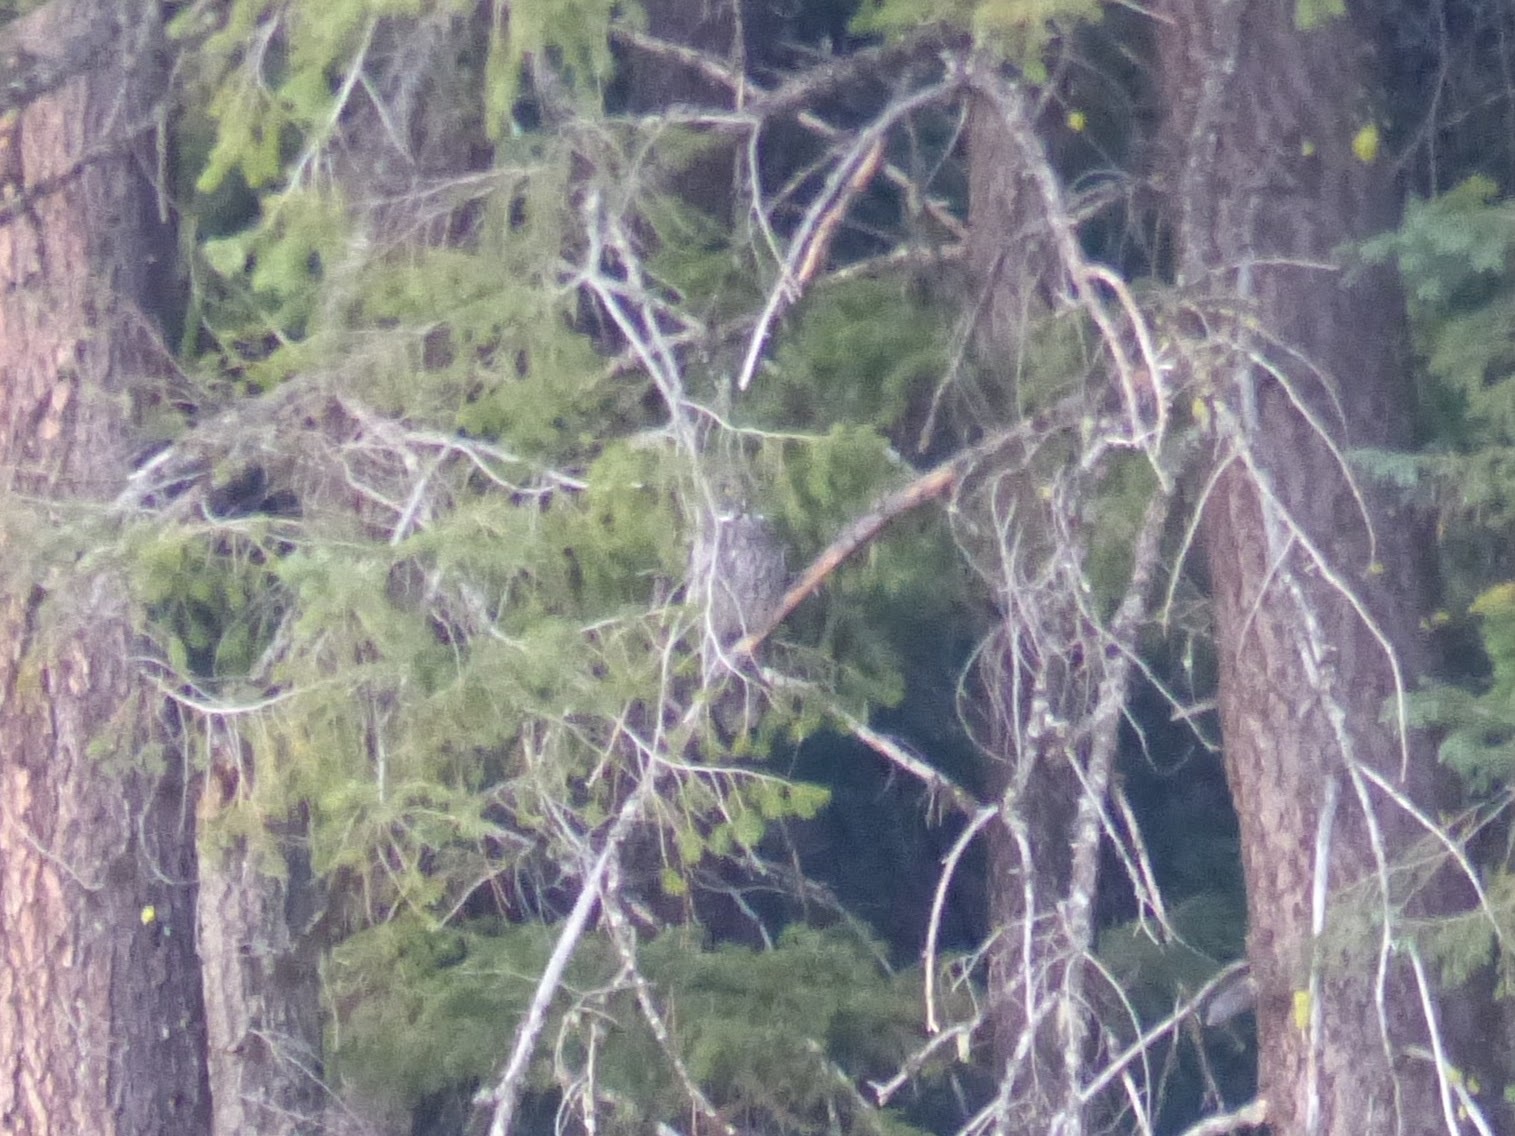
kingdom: Animalia
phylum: Chordata
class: Aves
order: Strigiformes
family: Strigidae
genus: Strix
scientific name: Strix nebulosa
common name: Great grey owl
